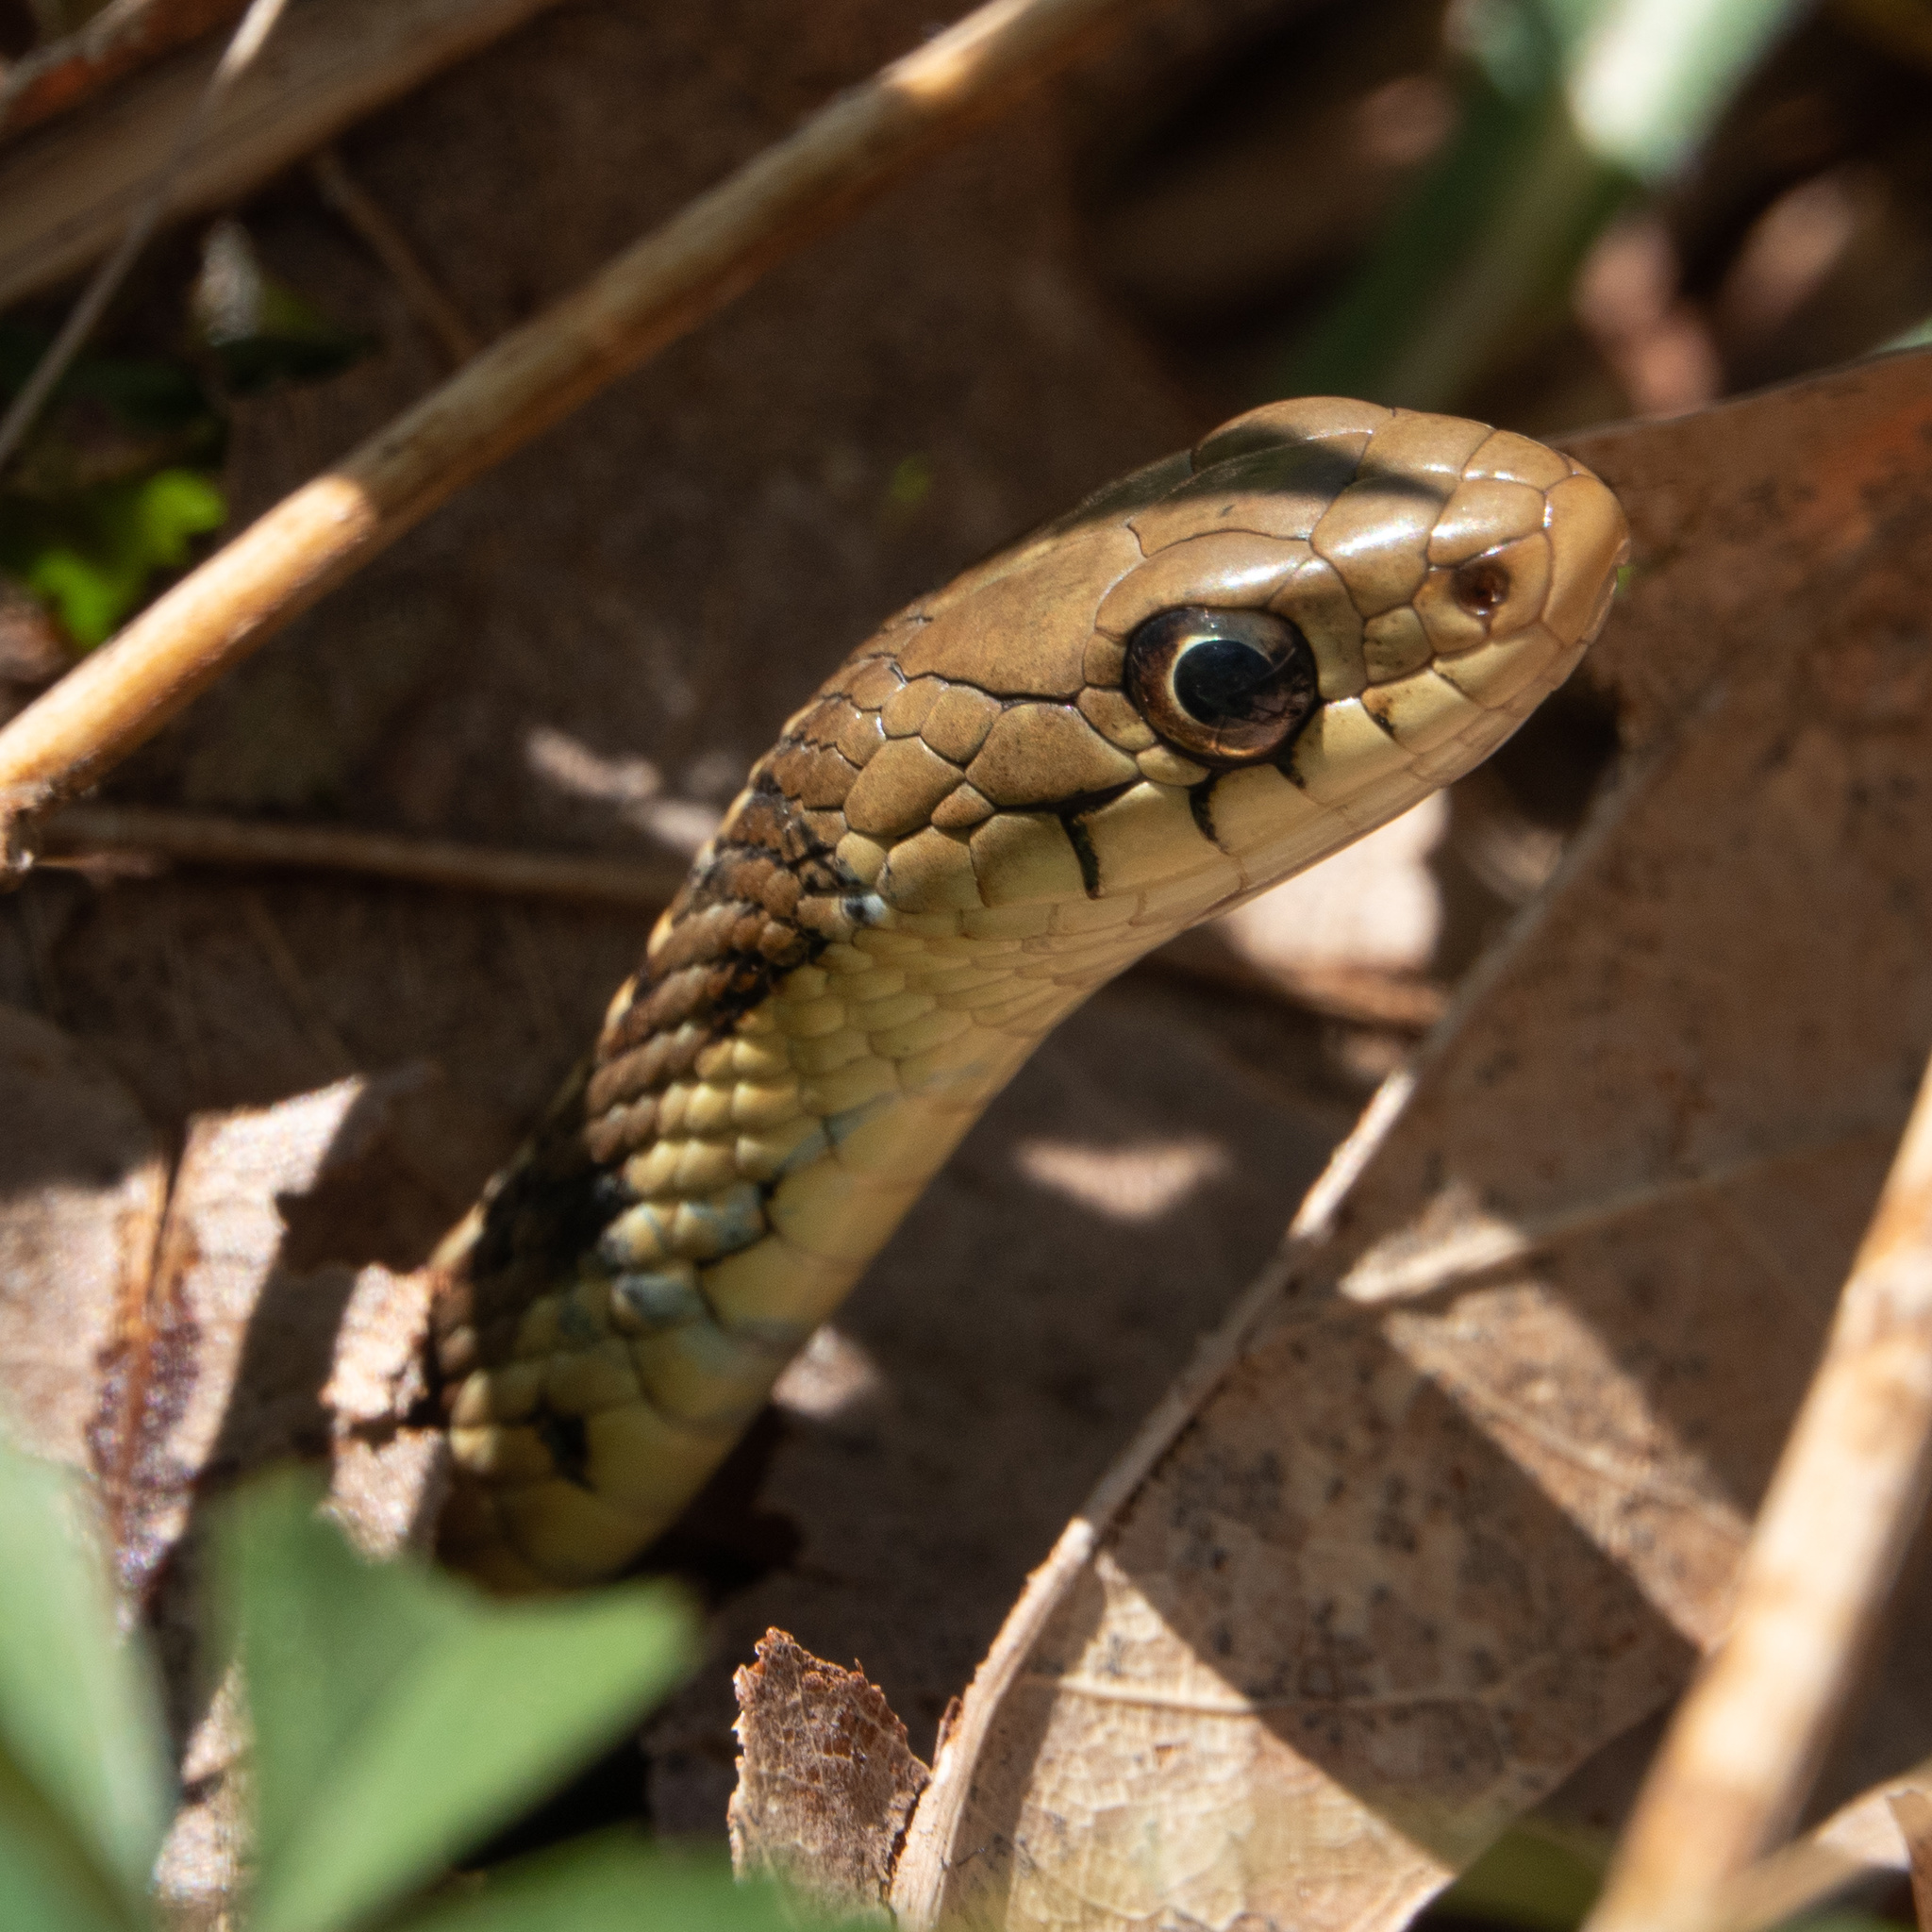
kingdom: Animalia
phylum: Chordata
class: Squamata
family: Colubridae
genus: Thamnophis
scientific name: Thamnophis sirtalis
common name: Common garter snake
